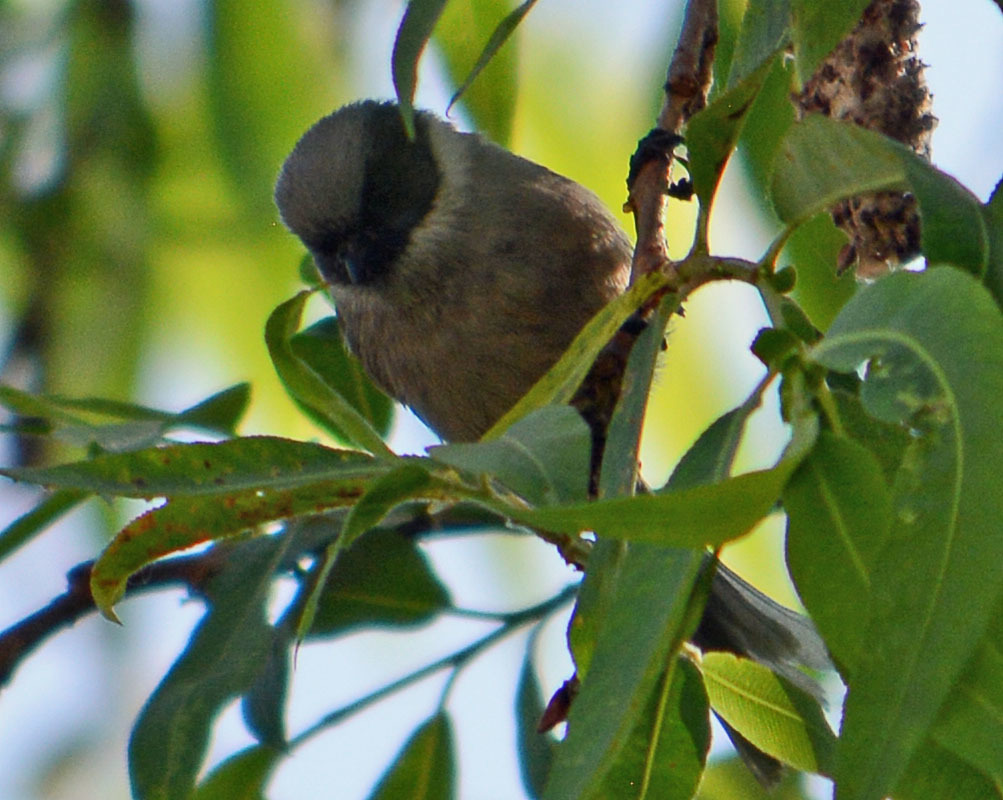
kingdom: Animalia
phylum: Chordata
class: Aves
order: Passeriformes
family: Aegithalidae
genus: Psaltriparus
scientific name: Psaltriparus minimus
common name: American bushtit
